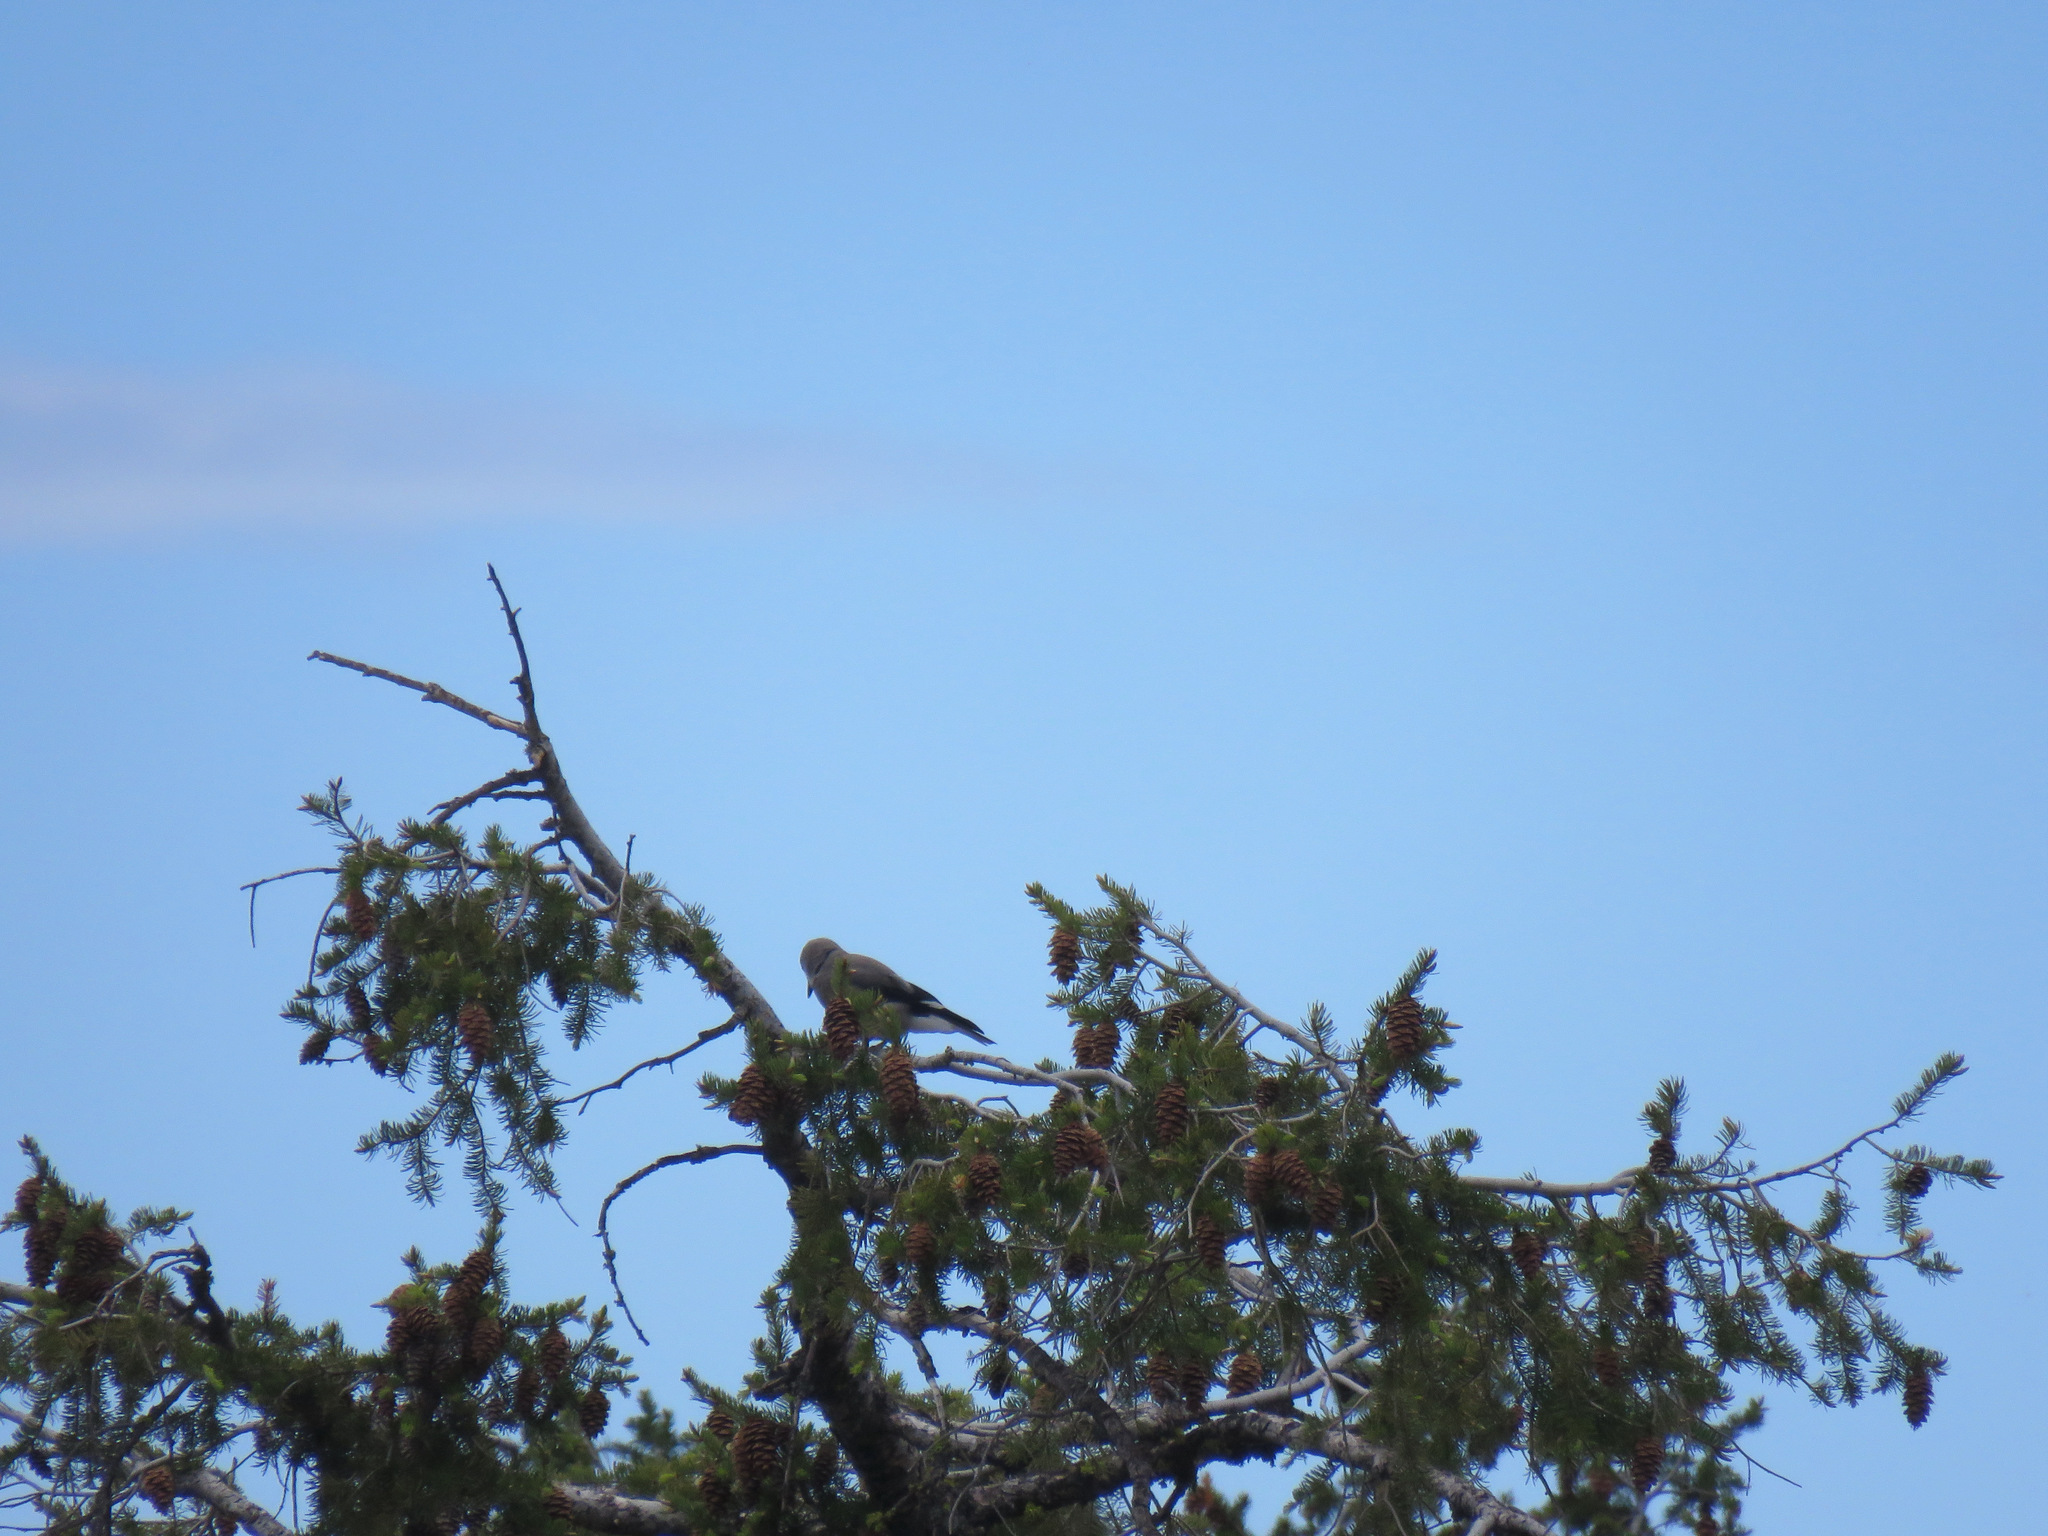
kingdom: Animalia
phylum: Chordata
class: Aves
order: Passeriformes
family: Corvidae
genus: Nucifraga
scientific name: Nucifraga columbiana
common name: Clark's nutcracker
